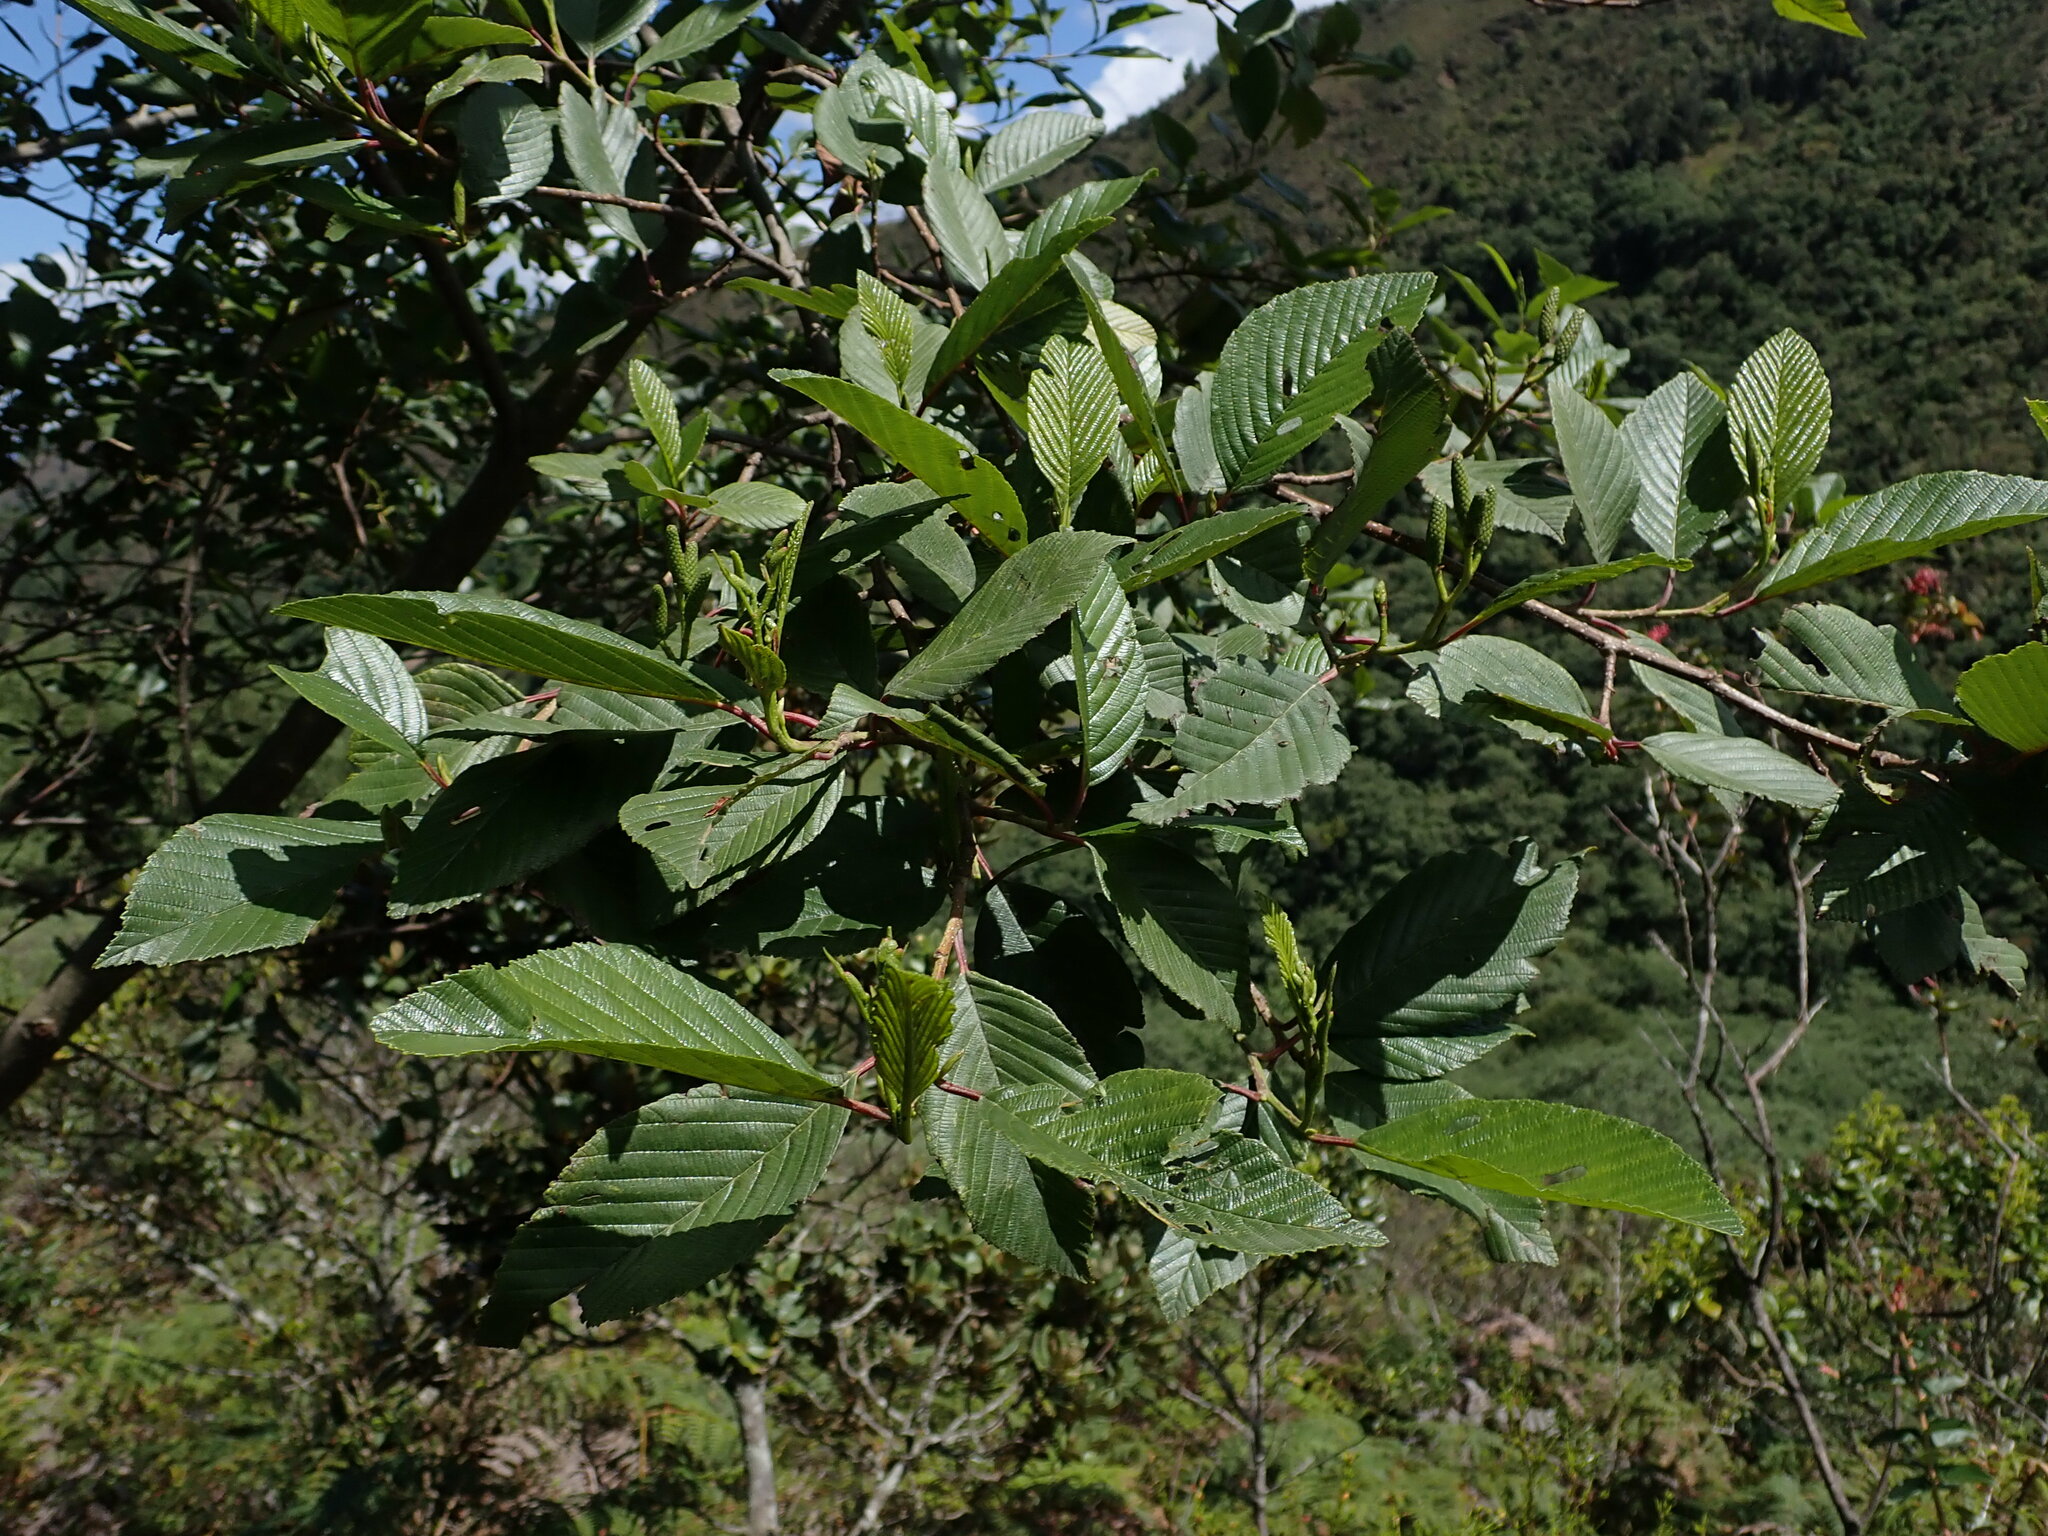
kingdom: Plantae
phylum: Tracheophyta
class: Magnoliopsida
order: Fagales
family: Betulaceae
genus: Alnus
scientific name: Alnus acuminata
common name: Alder
